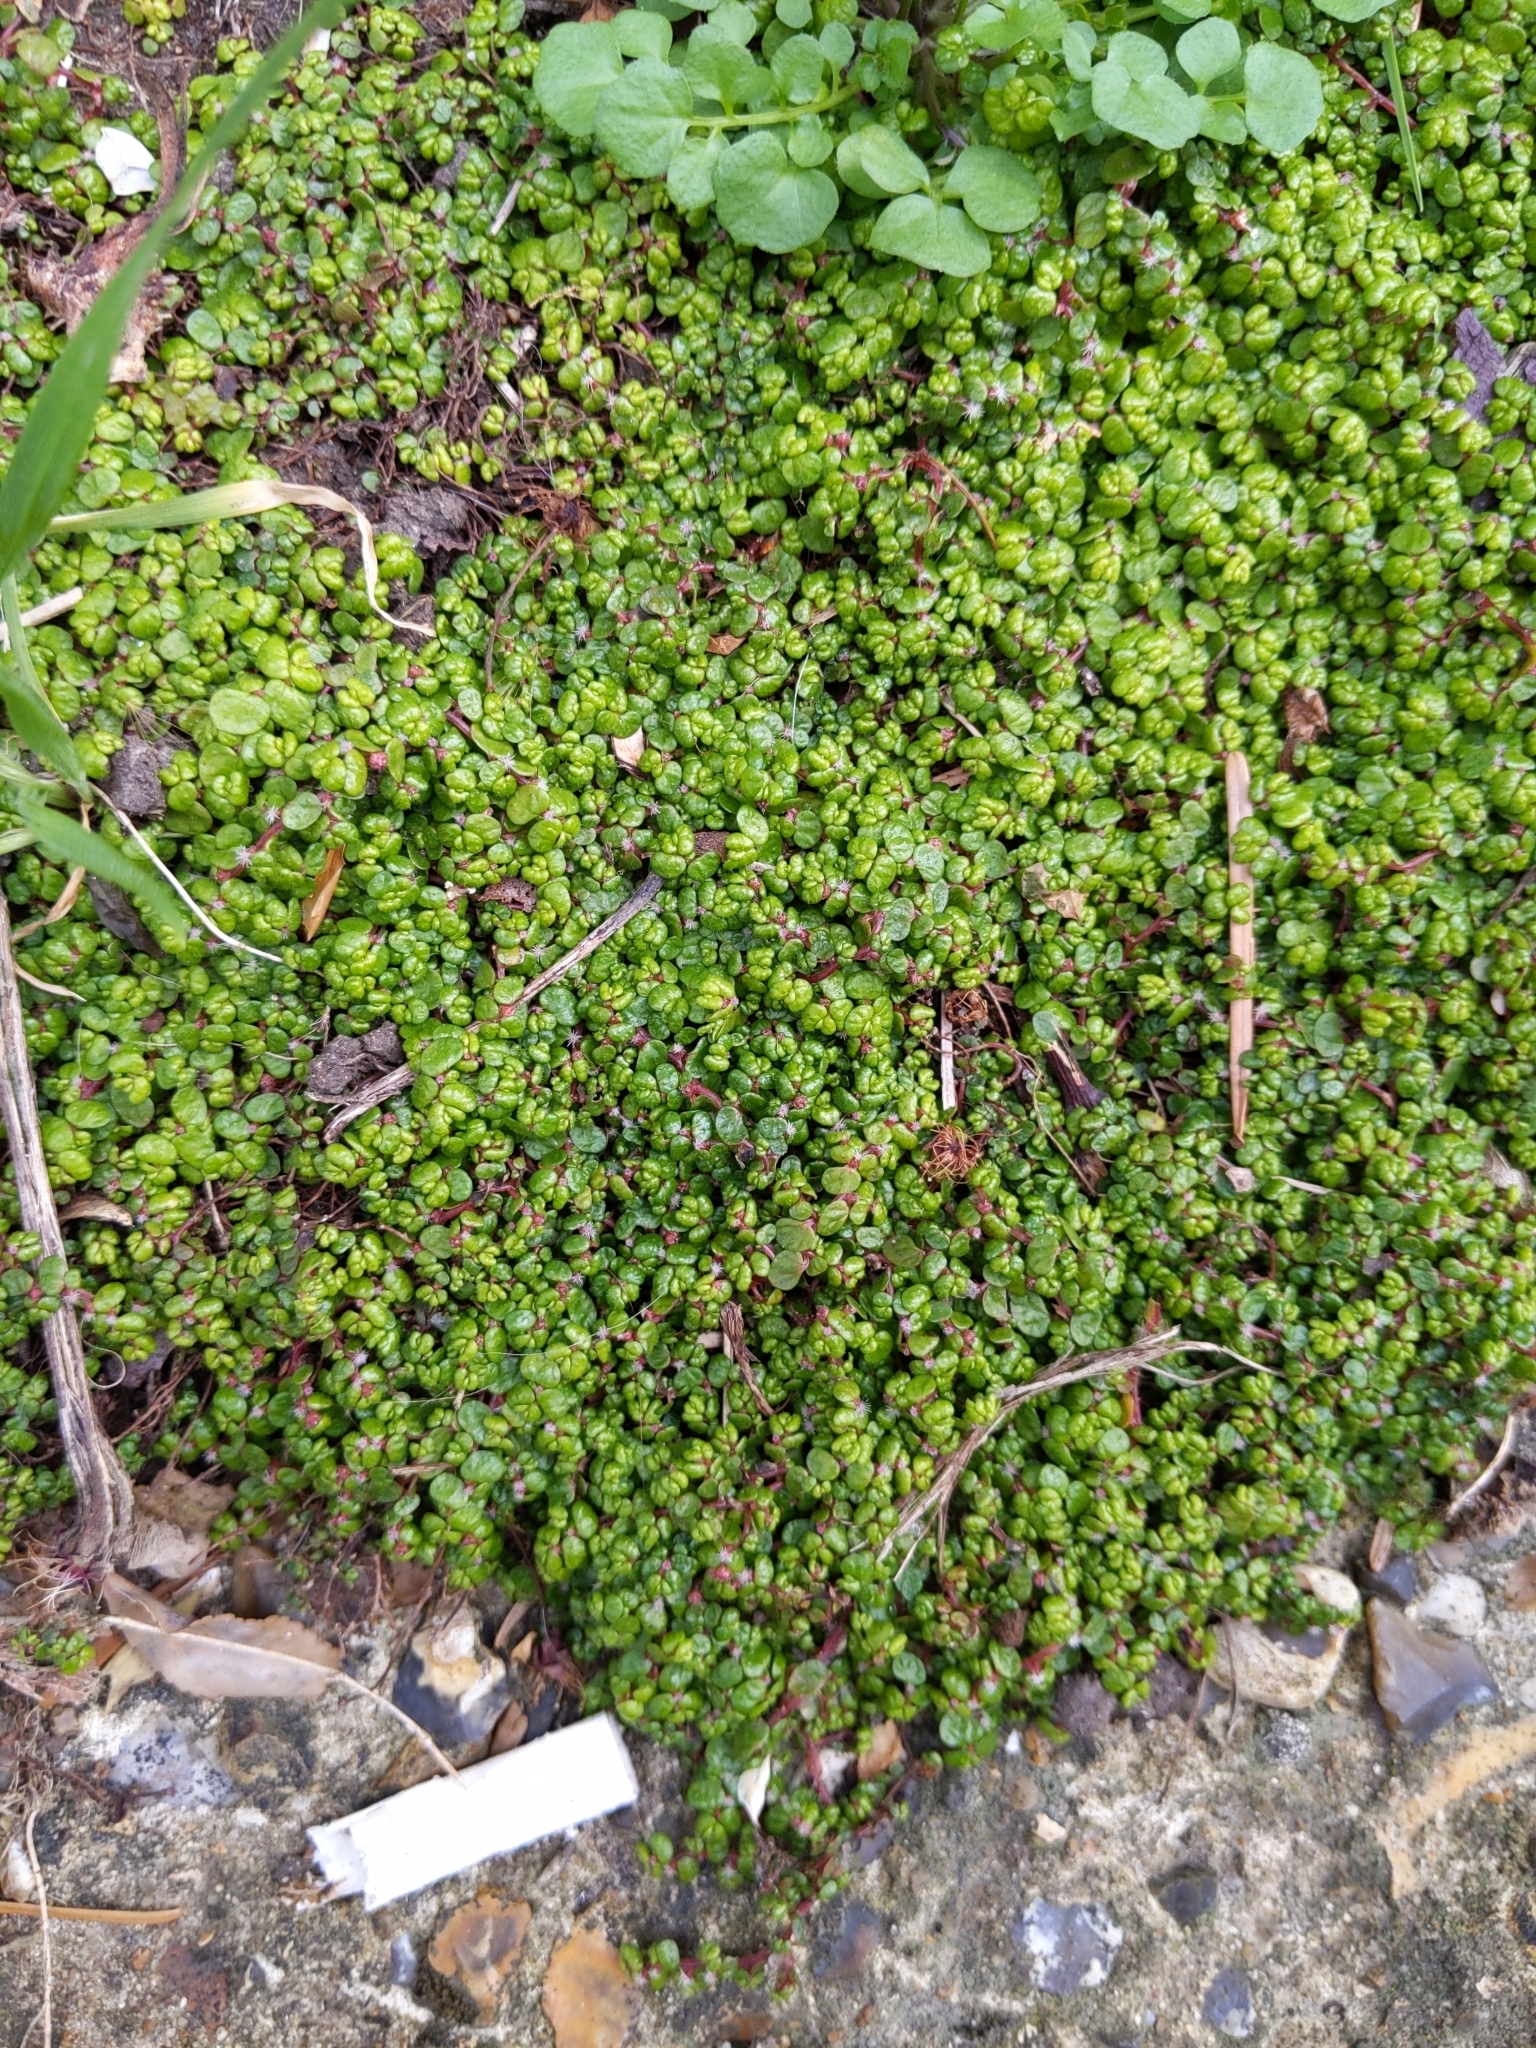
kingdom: Plantae
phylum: Tracheophyta
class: Magnoliopsida
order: Rosales
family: Urticaceae
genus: Soleirolia
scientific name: Soleirolia soleirolii
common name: Mind-your-own-business
